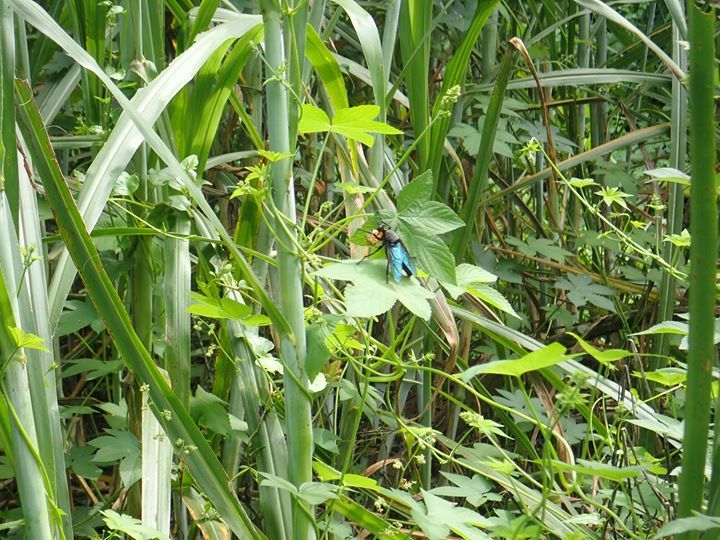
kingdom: Animalia
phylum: Arthropoda
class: Insecta
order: Diptera
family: Asilidae
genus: Microstylum
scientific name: Microstylum oberthurii
